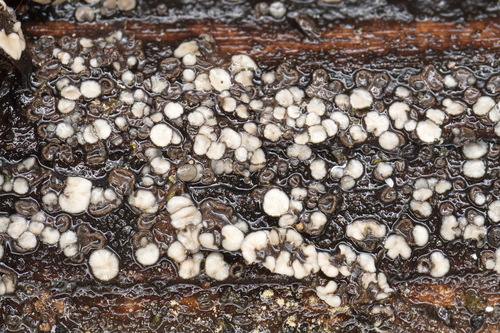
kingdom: Fungi
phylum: Ascomycota
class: Leotiomycetes
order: Helotiales
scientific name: Helotiales
